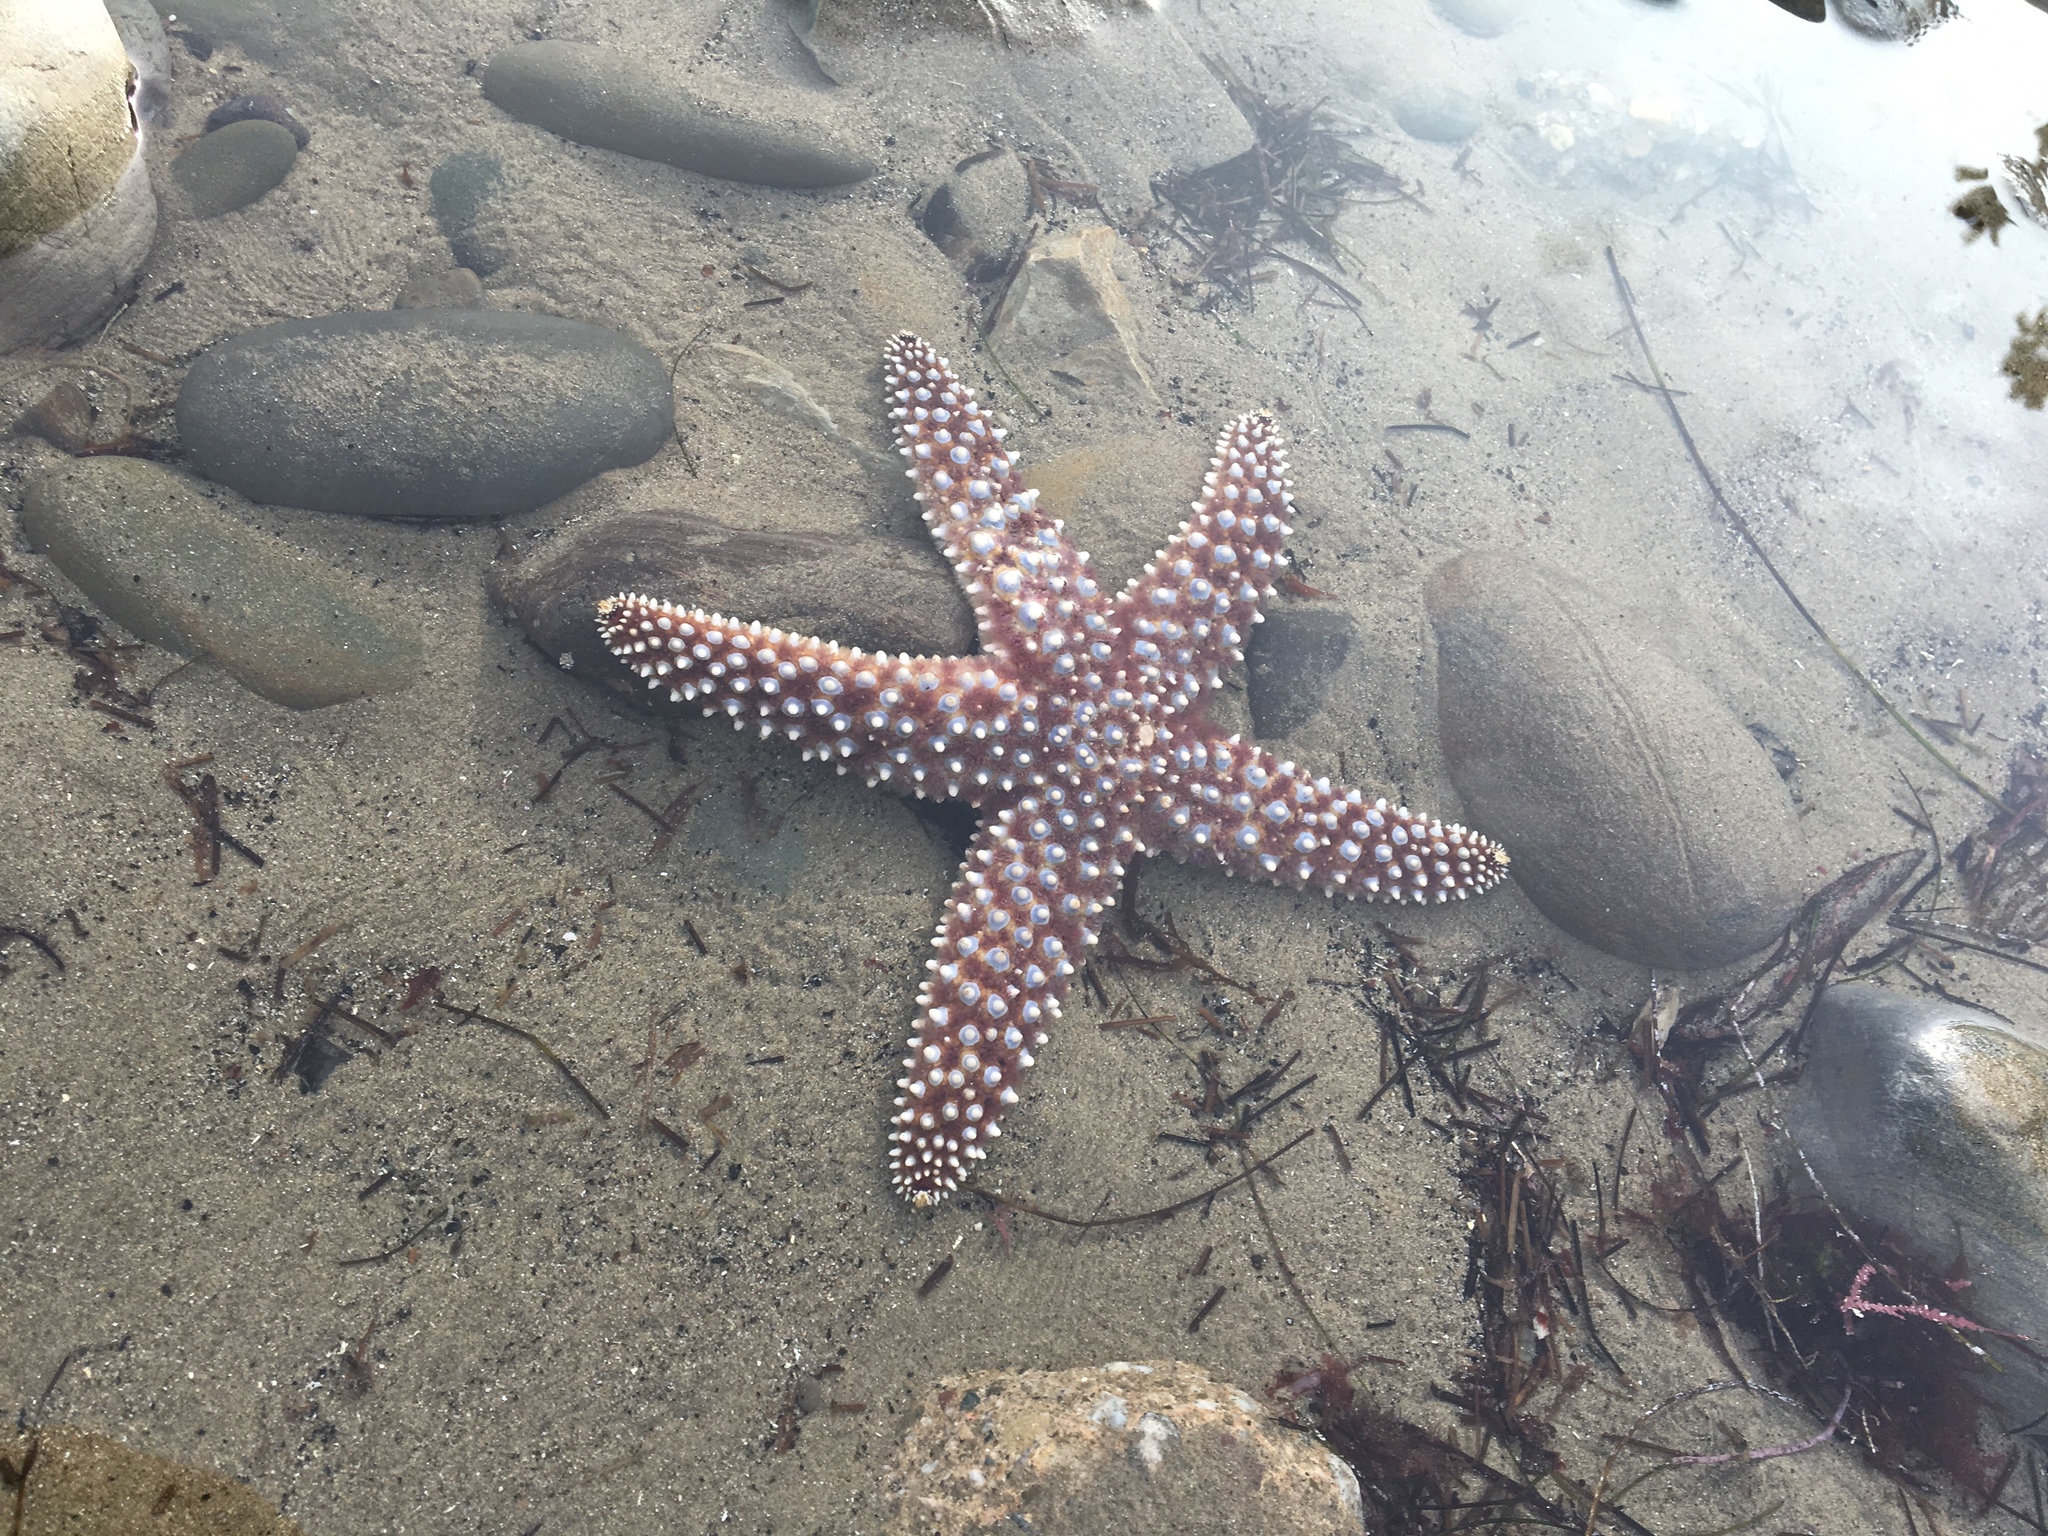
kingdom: Animalia
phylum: Echinodermata
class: Asteroidea
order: Forcipulatida
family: Asteriidae
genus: Pisaster
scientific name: Pisaster giganteus
